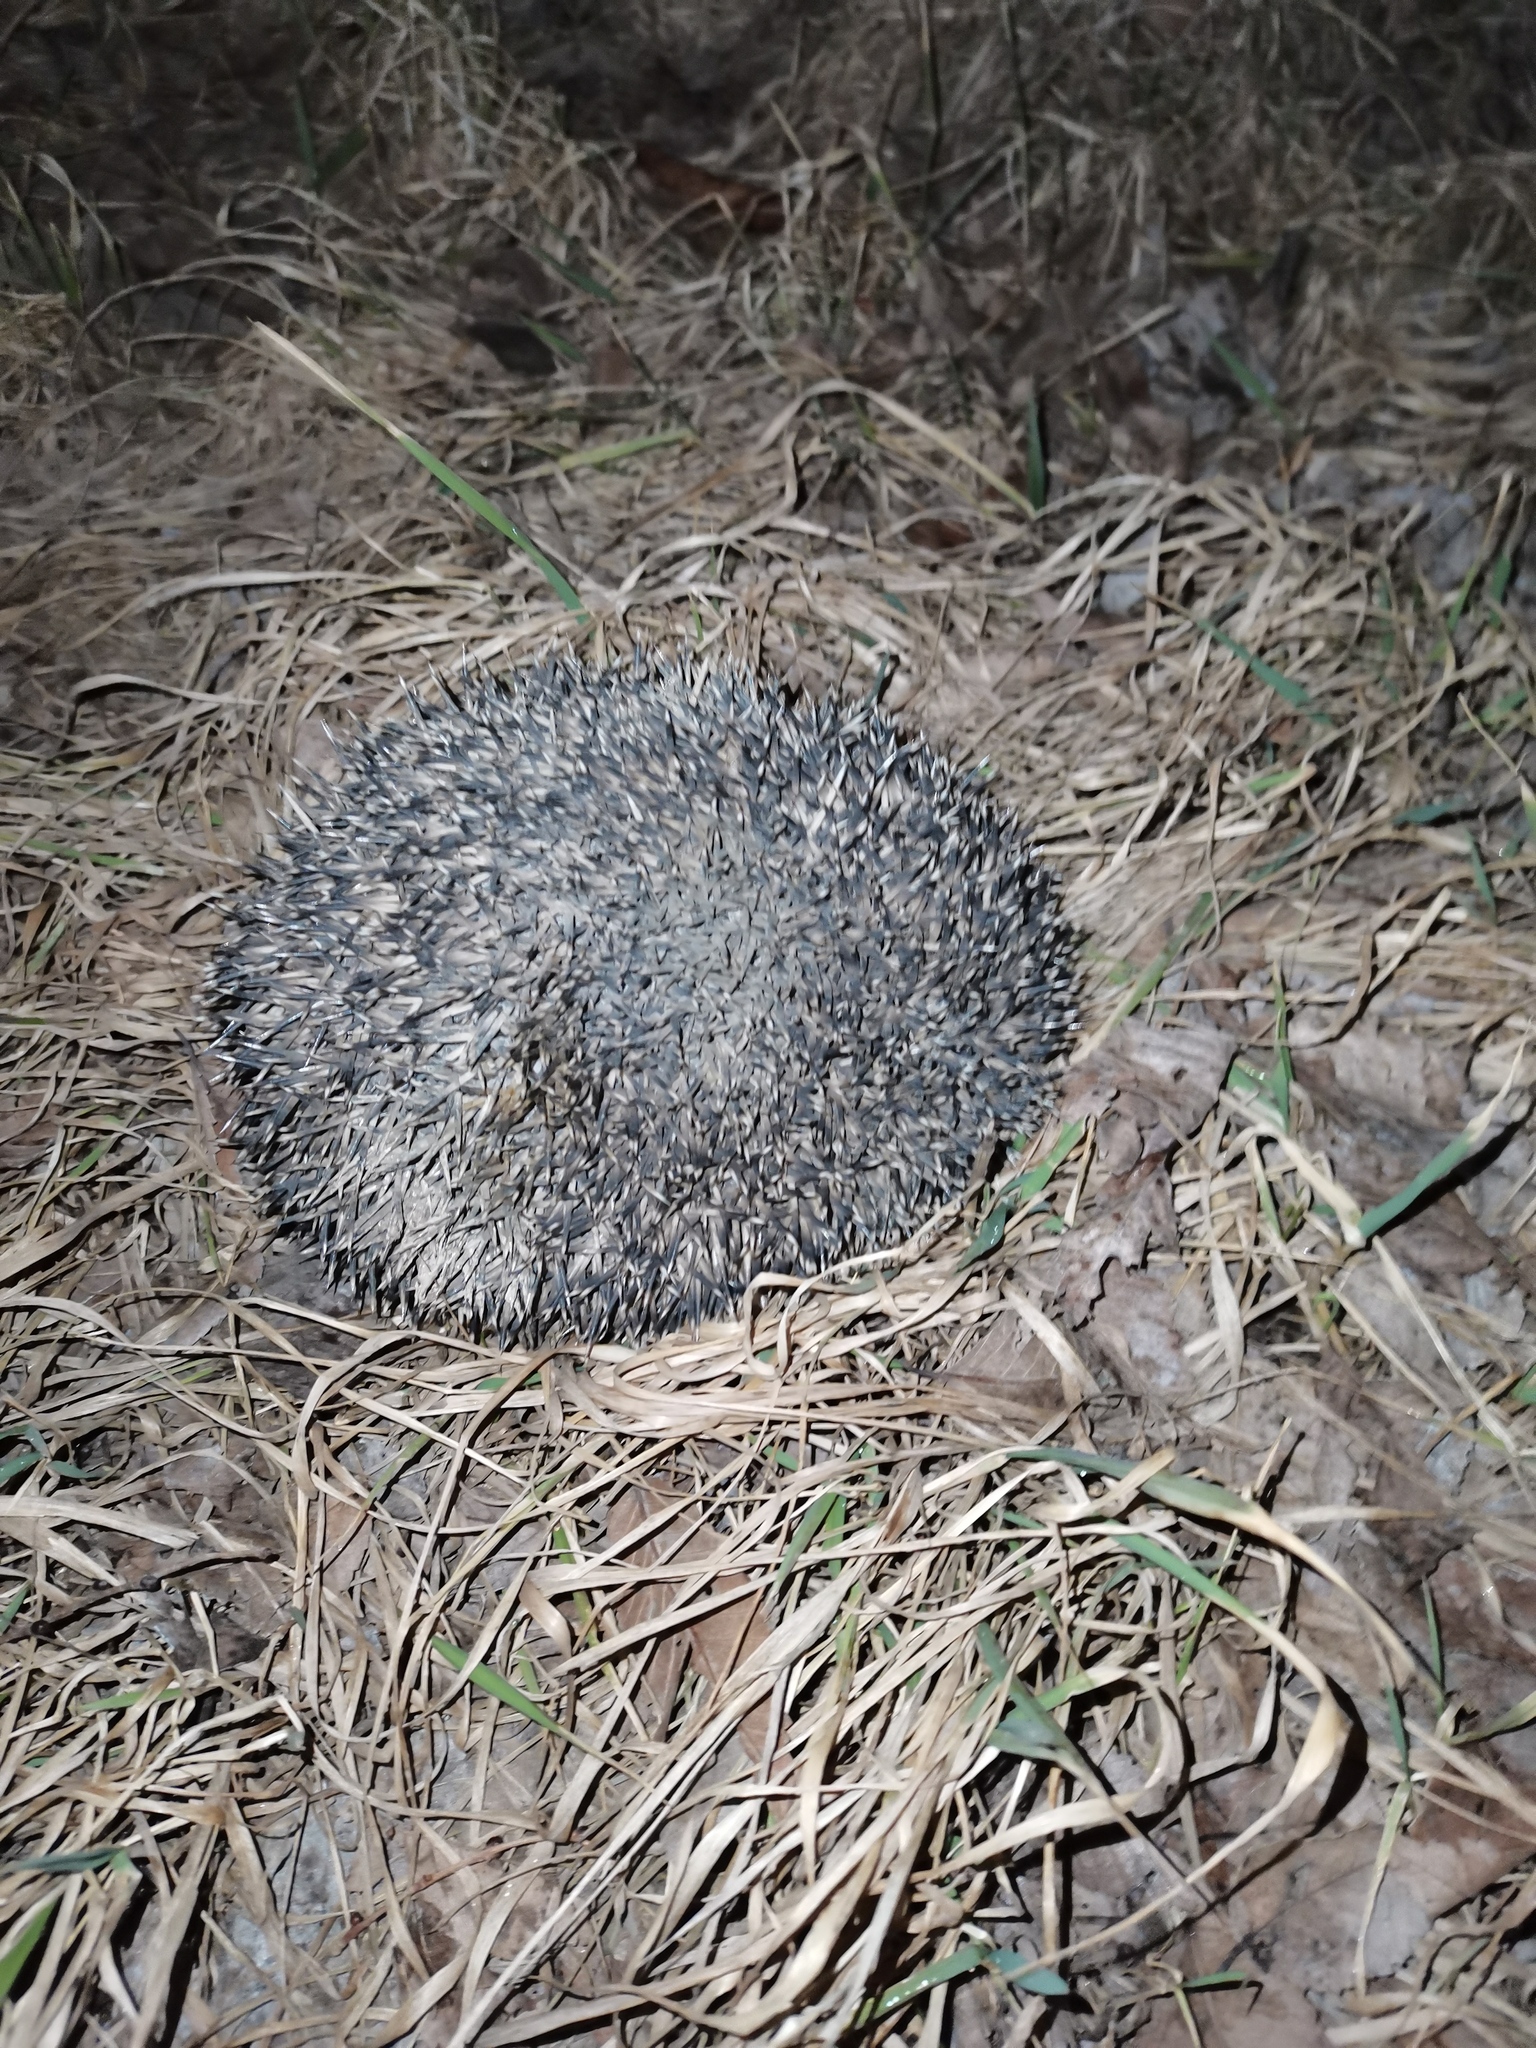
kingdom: Animalia
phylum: Chordata
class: Mammalia
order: Erinaceomorpha
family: Erinaceidae
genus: Erinaceus
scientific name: Erinaceus roumanicus
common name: Northern white-breasted hedgehog
